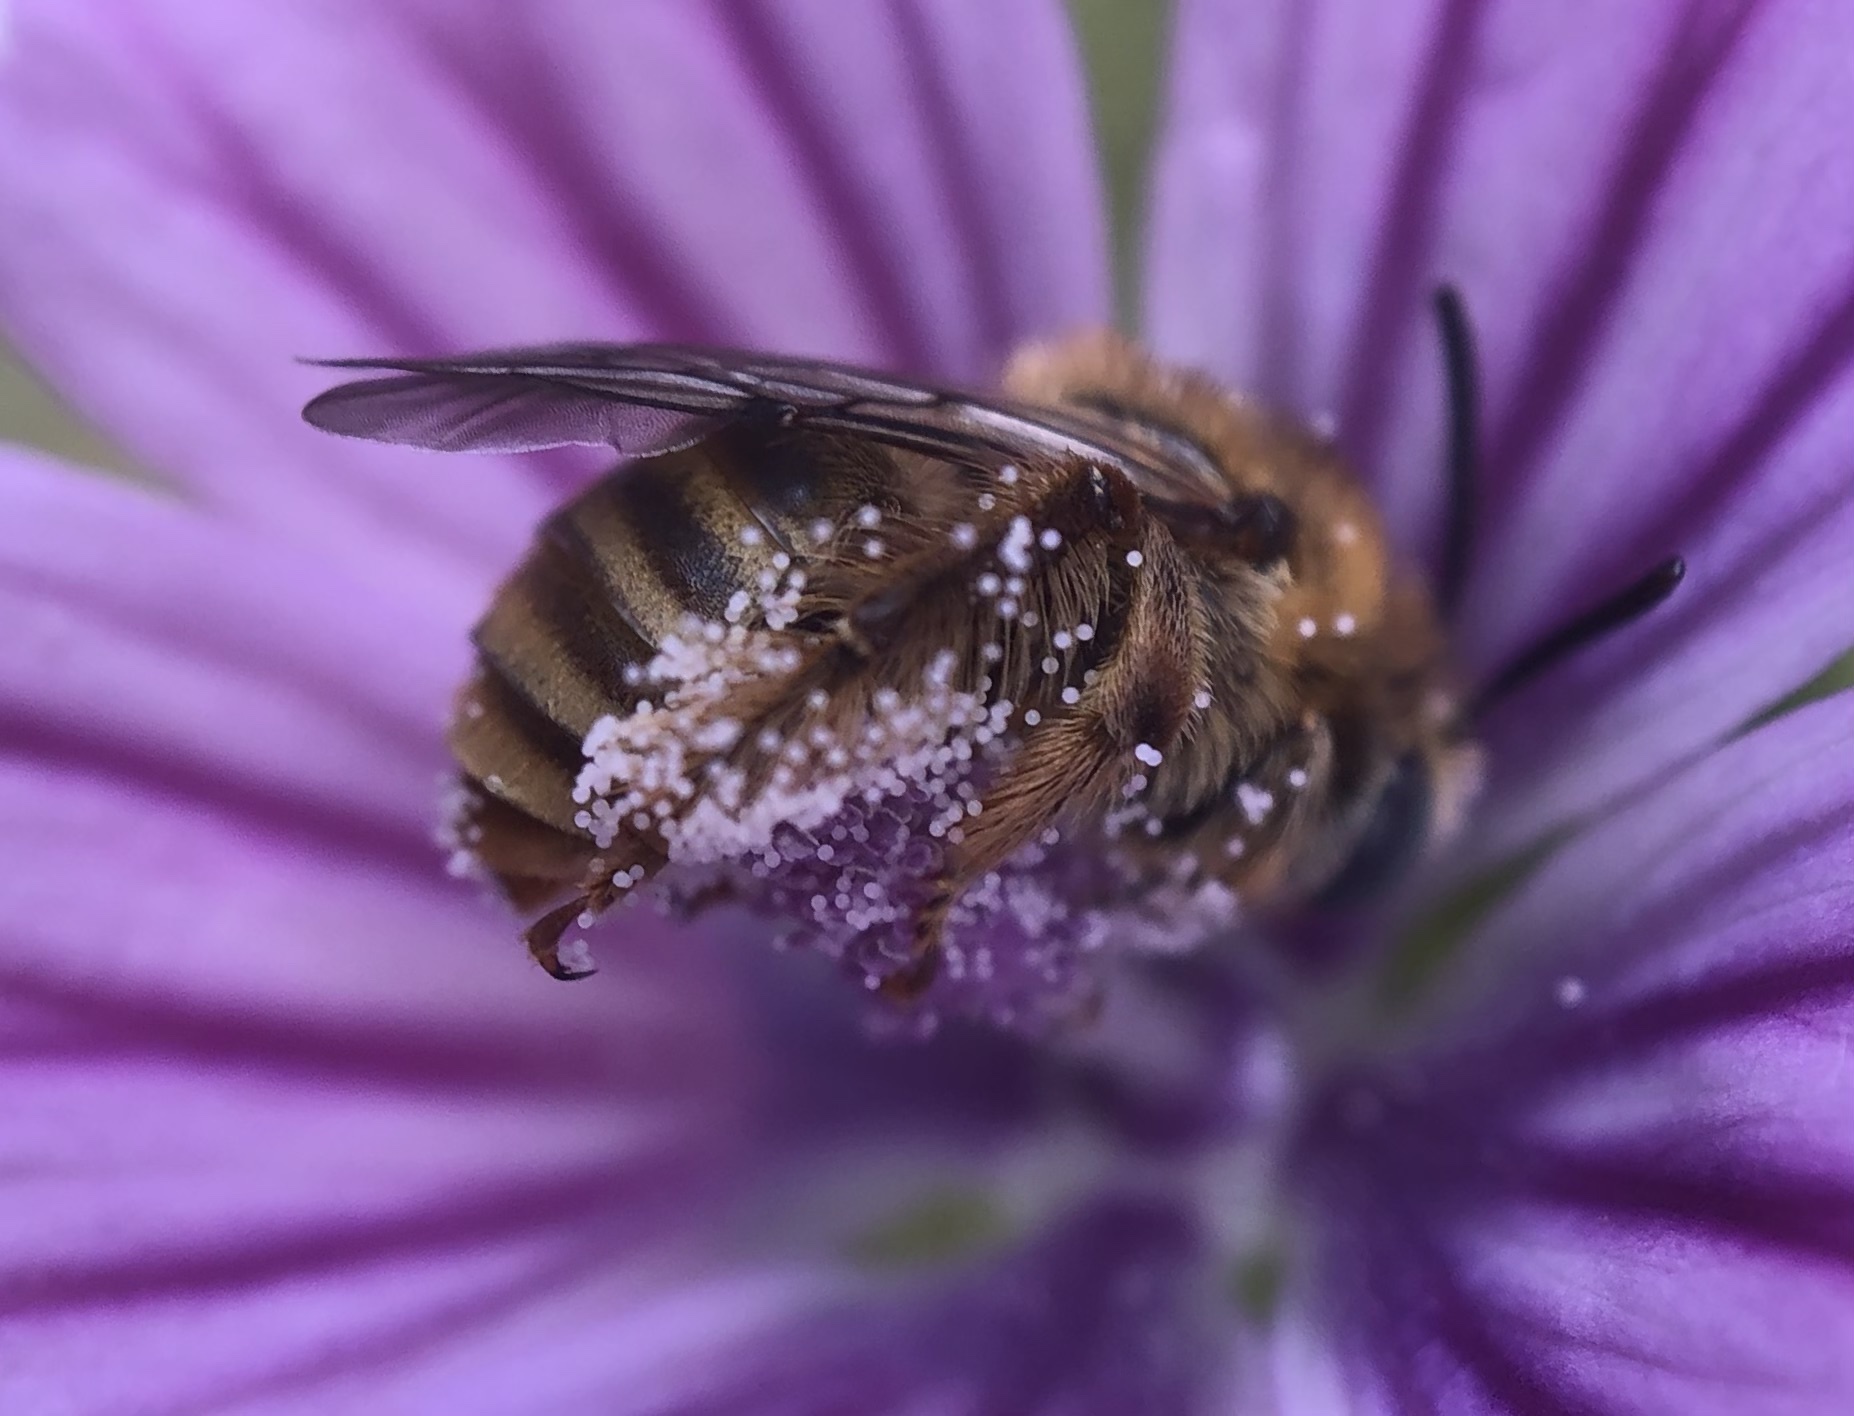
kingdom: Animalia
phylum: Arthropoda
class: Insecta
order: Hymenoptera
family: Apidae
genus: Tetralonia
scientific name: Tetralonia malvae
